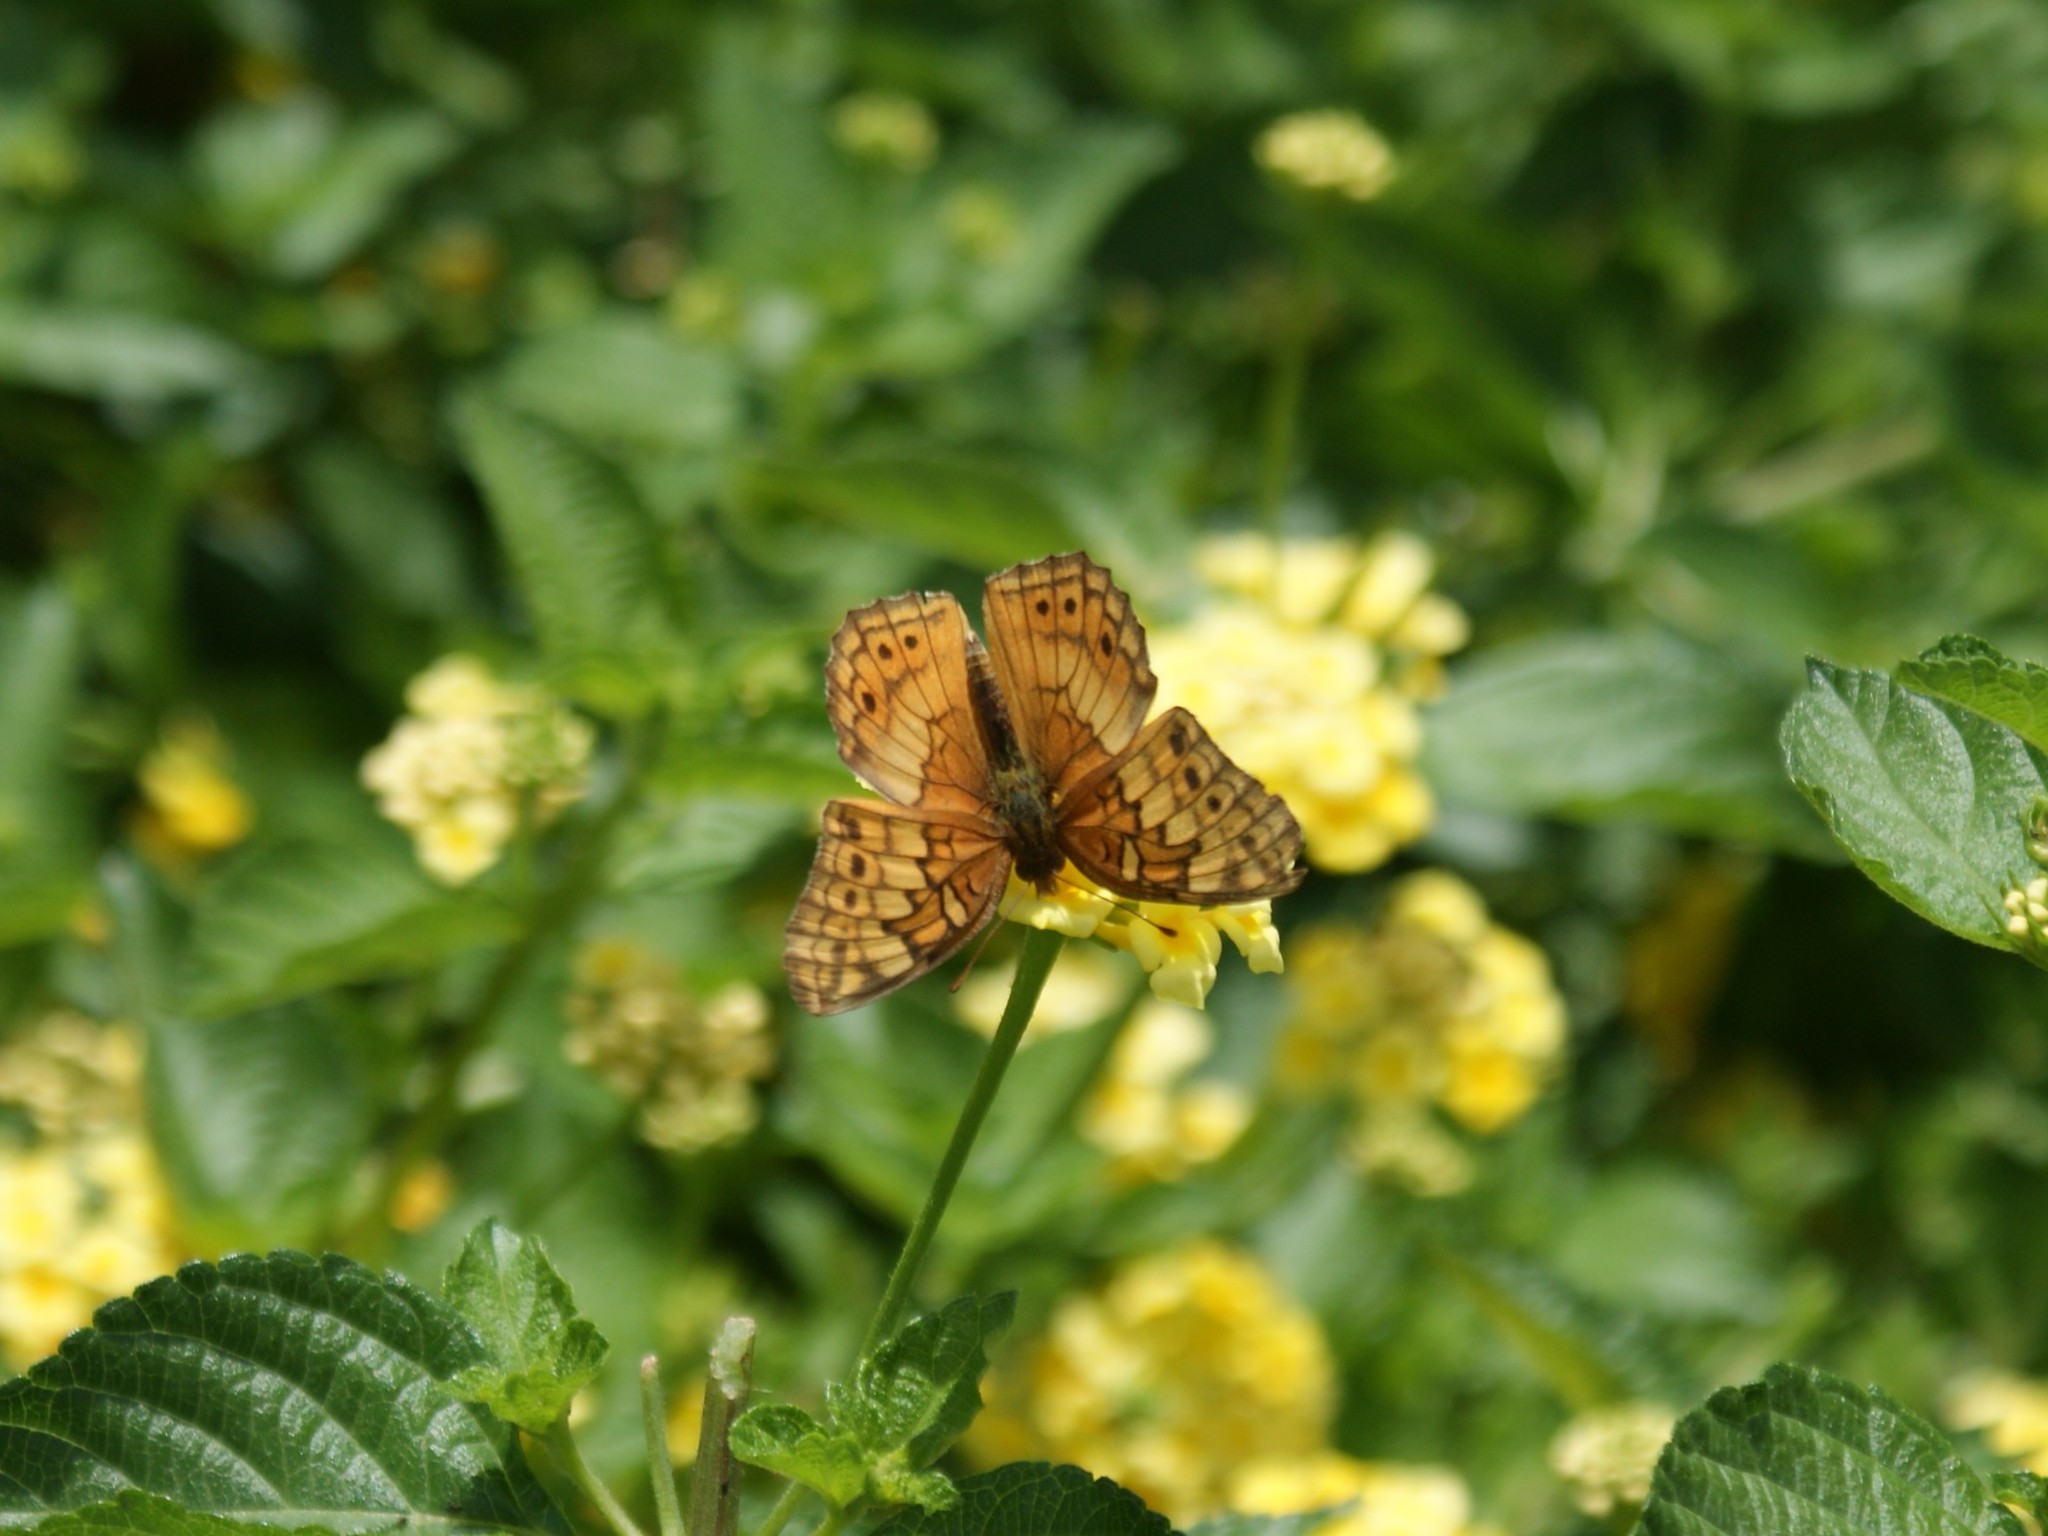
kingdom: Animalia
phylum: Arthropoda
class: Insecta
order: Lepidoptera
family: Nymphalidae
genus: Euptoieta
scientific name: Euptoieta claudia
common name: Variegated fritillary
